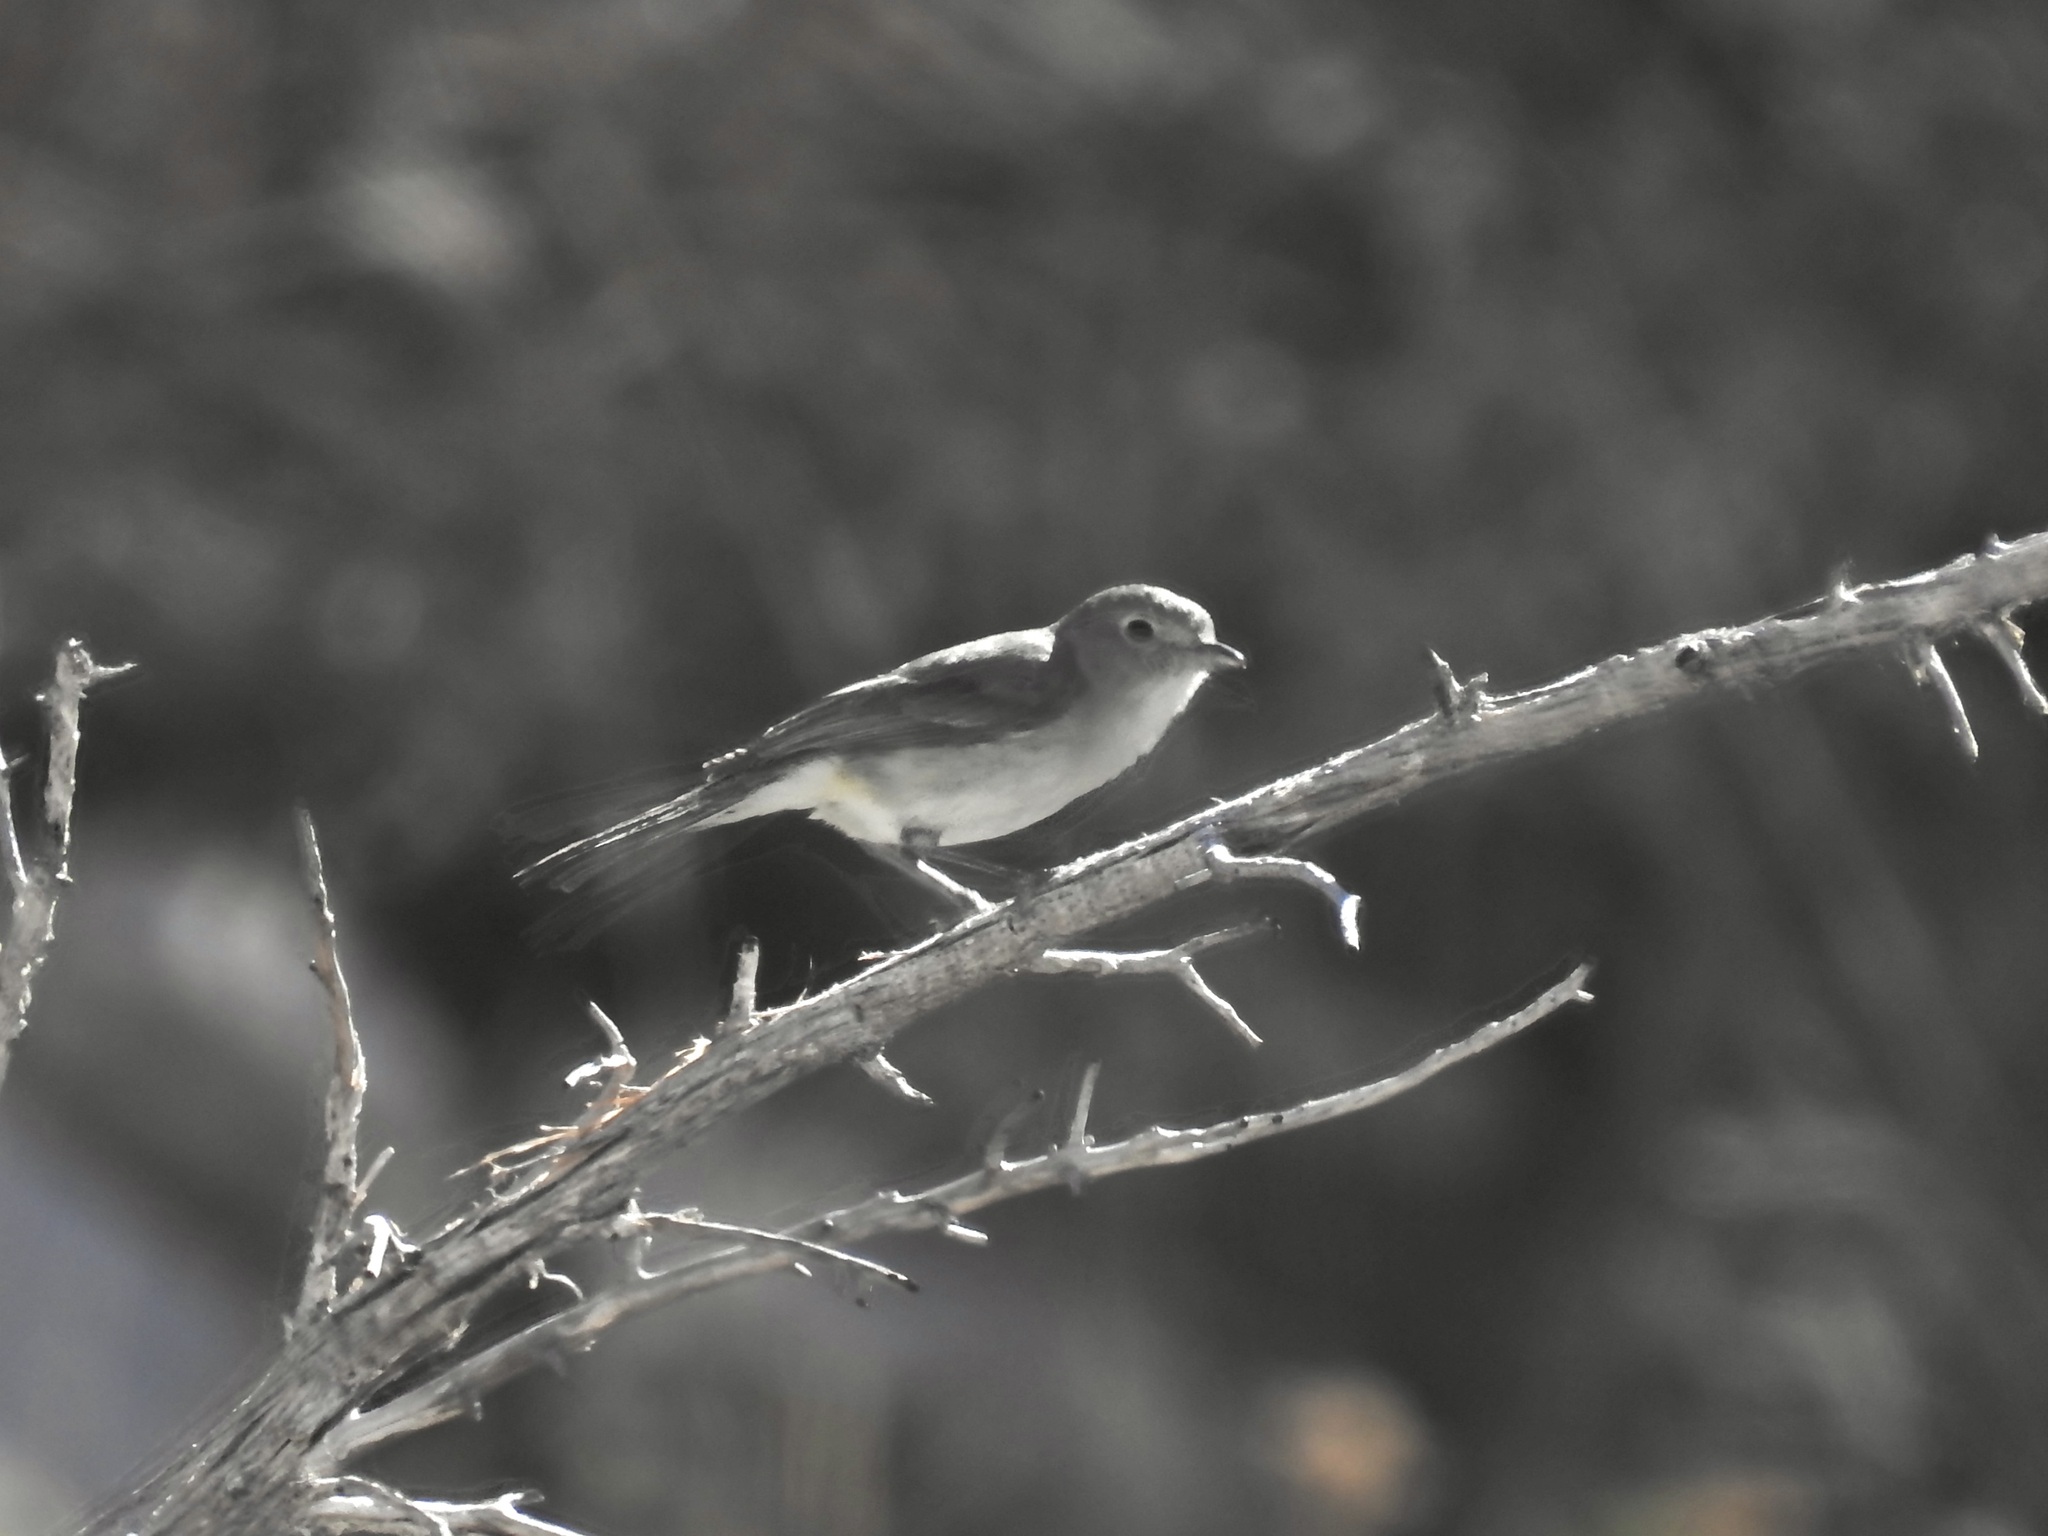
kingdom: Animalia
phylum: Chordata
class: Aves
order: Passeriformes
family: Vireonidae
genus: Vireo
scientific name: Vireo vicinior
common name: Gray vireo
